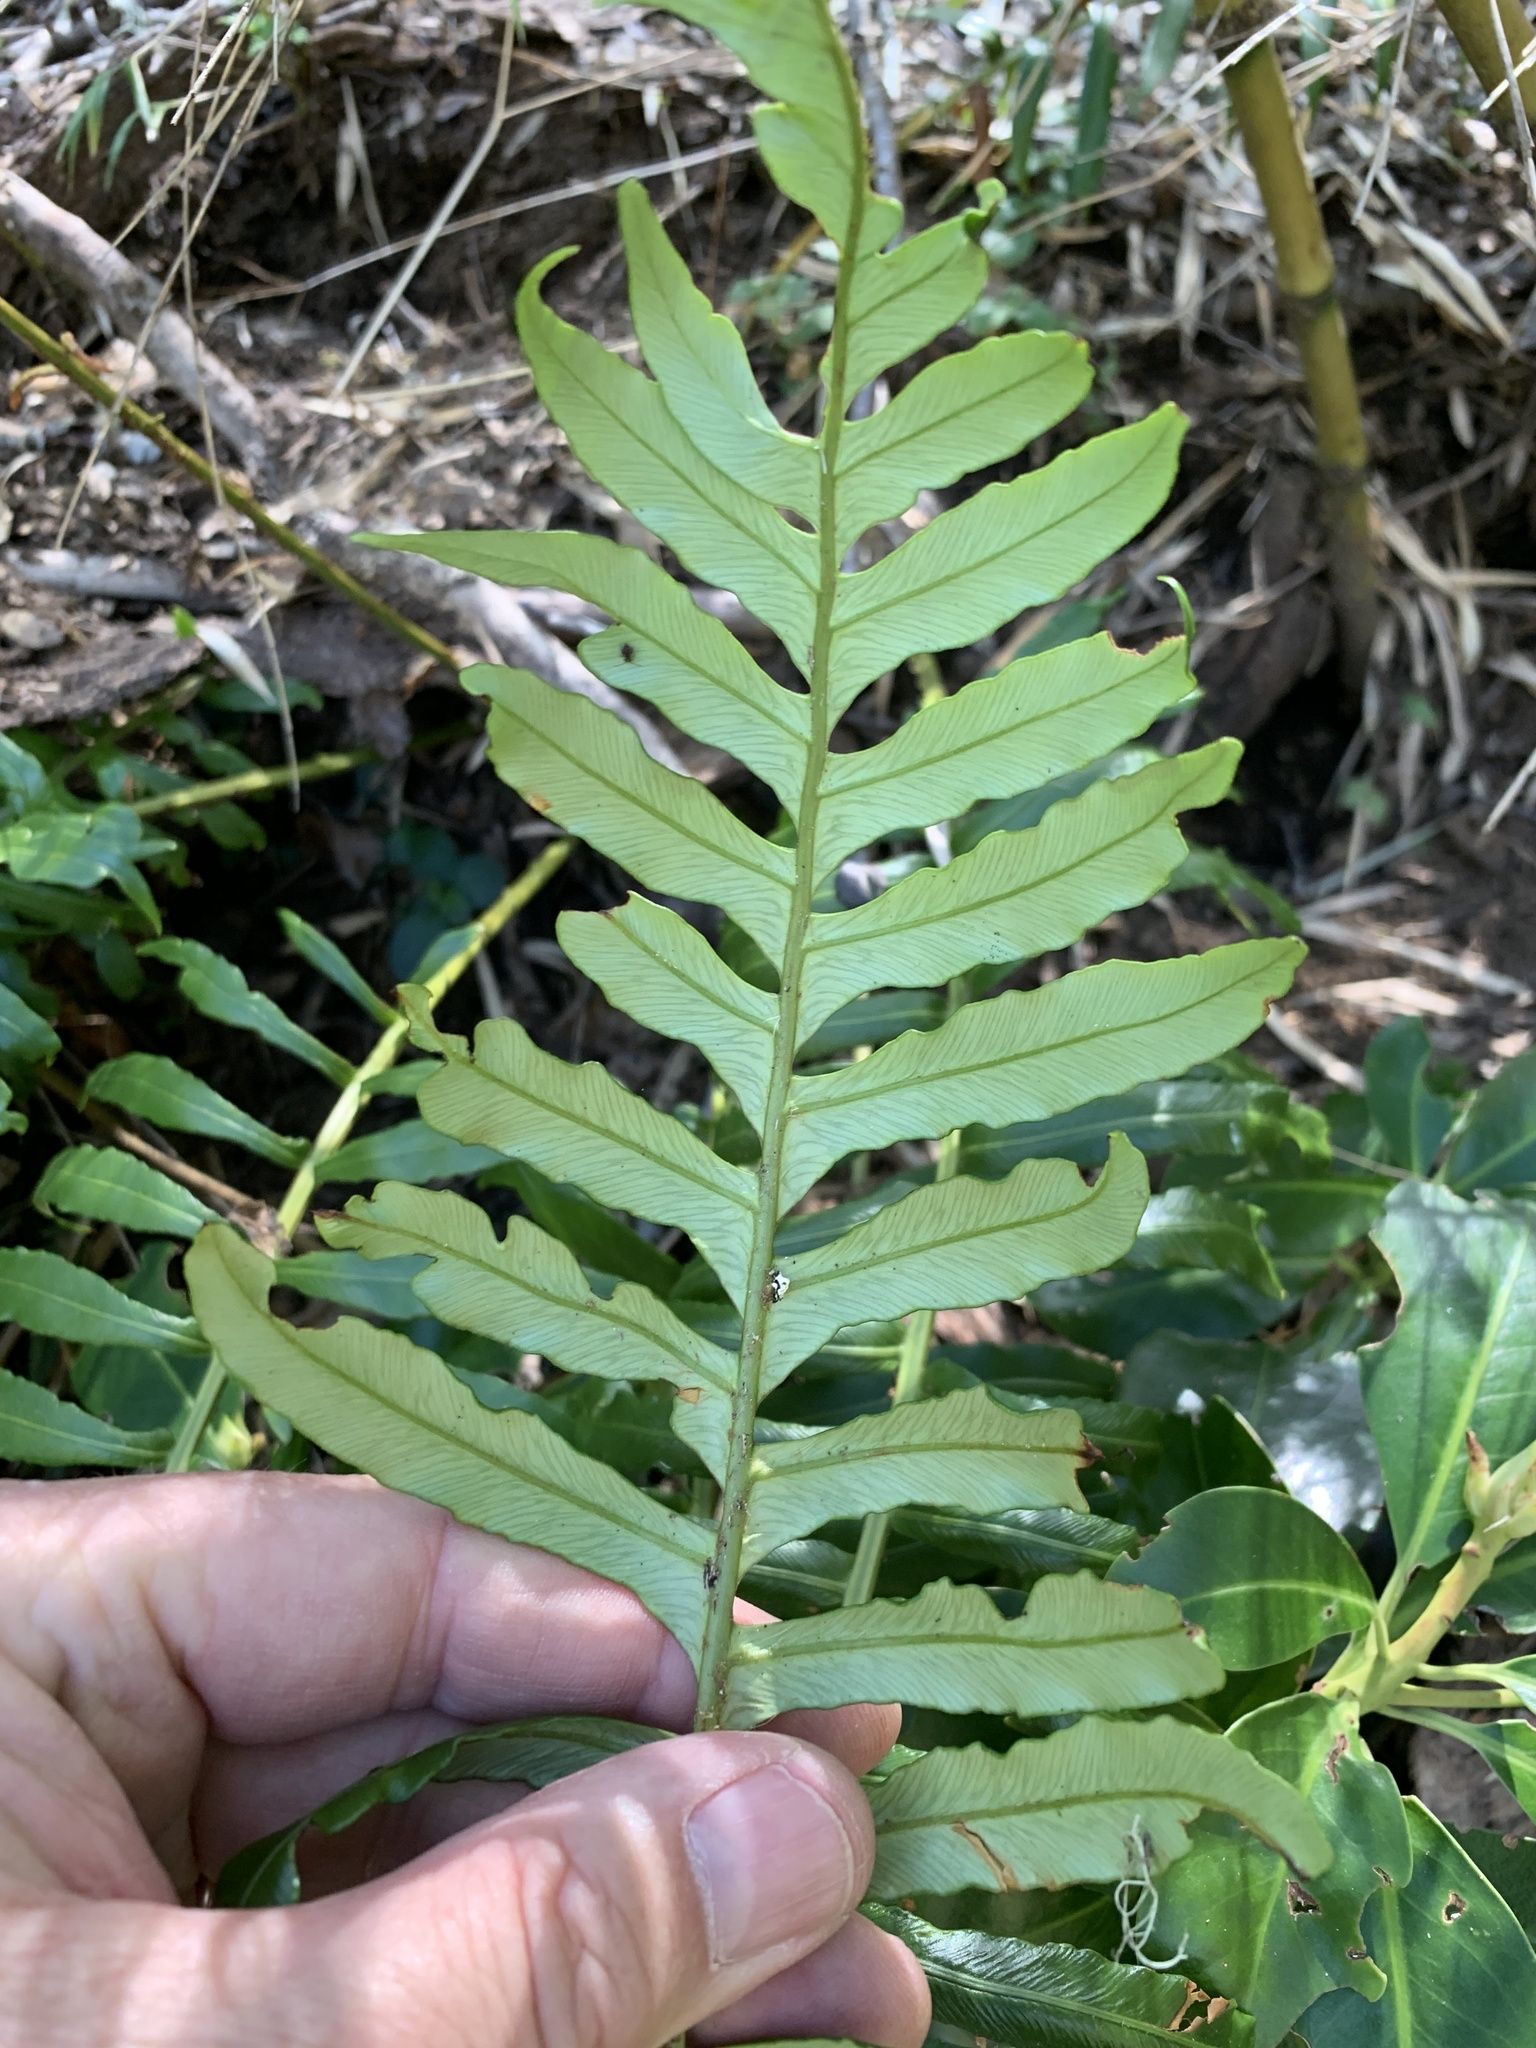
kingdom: Plantae
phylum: Tracheophyta
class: Polypodiopsida
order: Polypodiales
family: Blechnaceae
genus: Lomariocycas
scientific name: Lomariocycas magellanica
